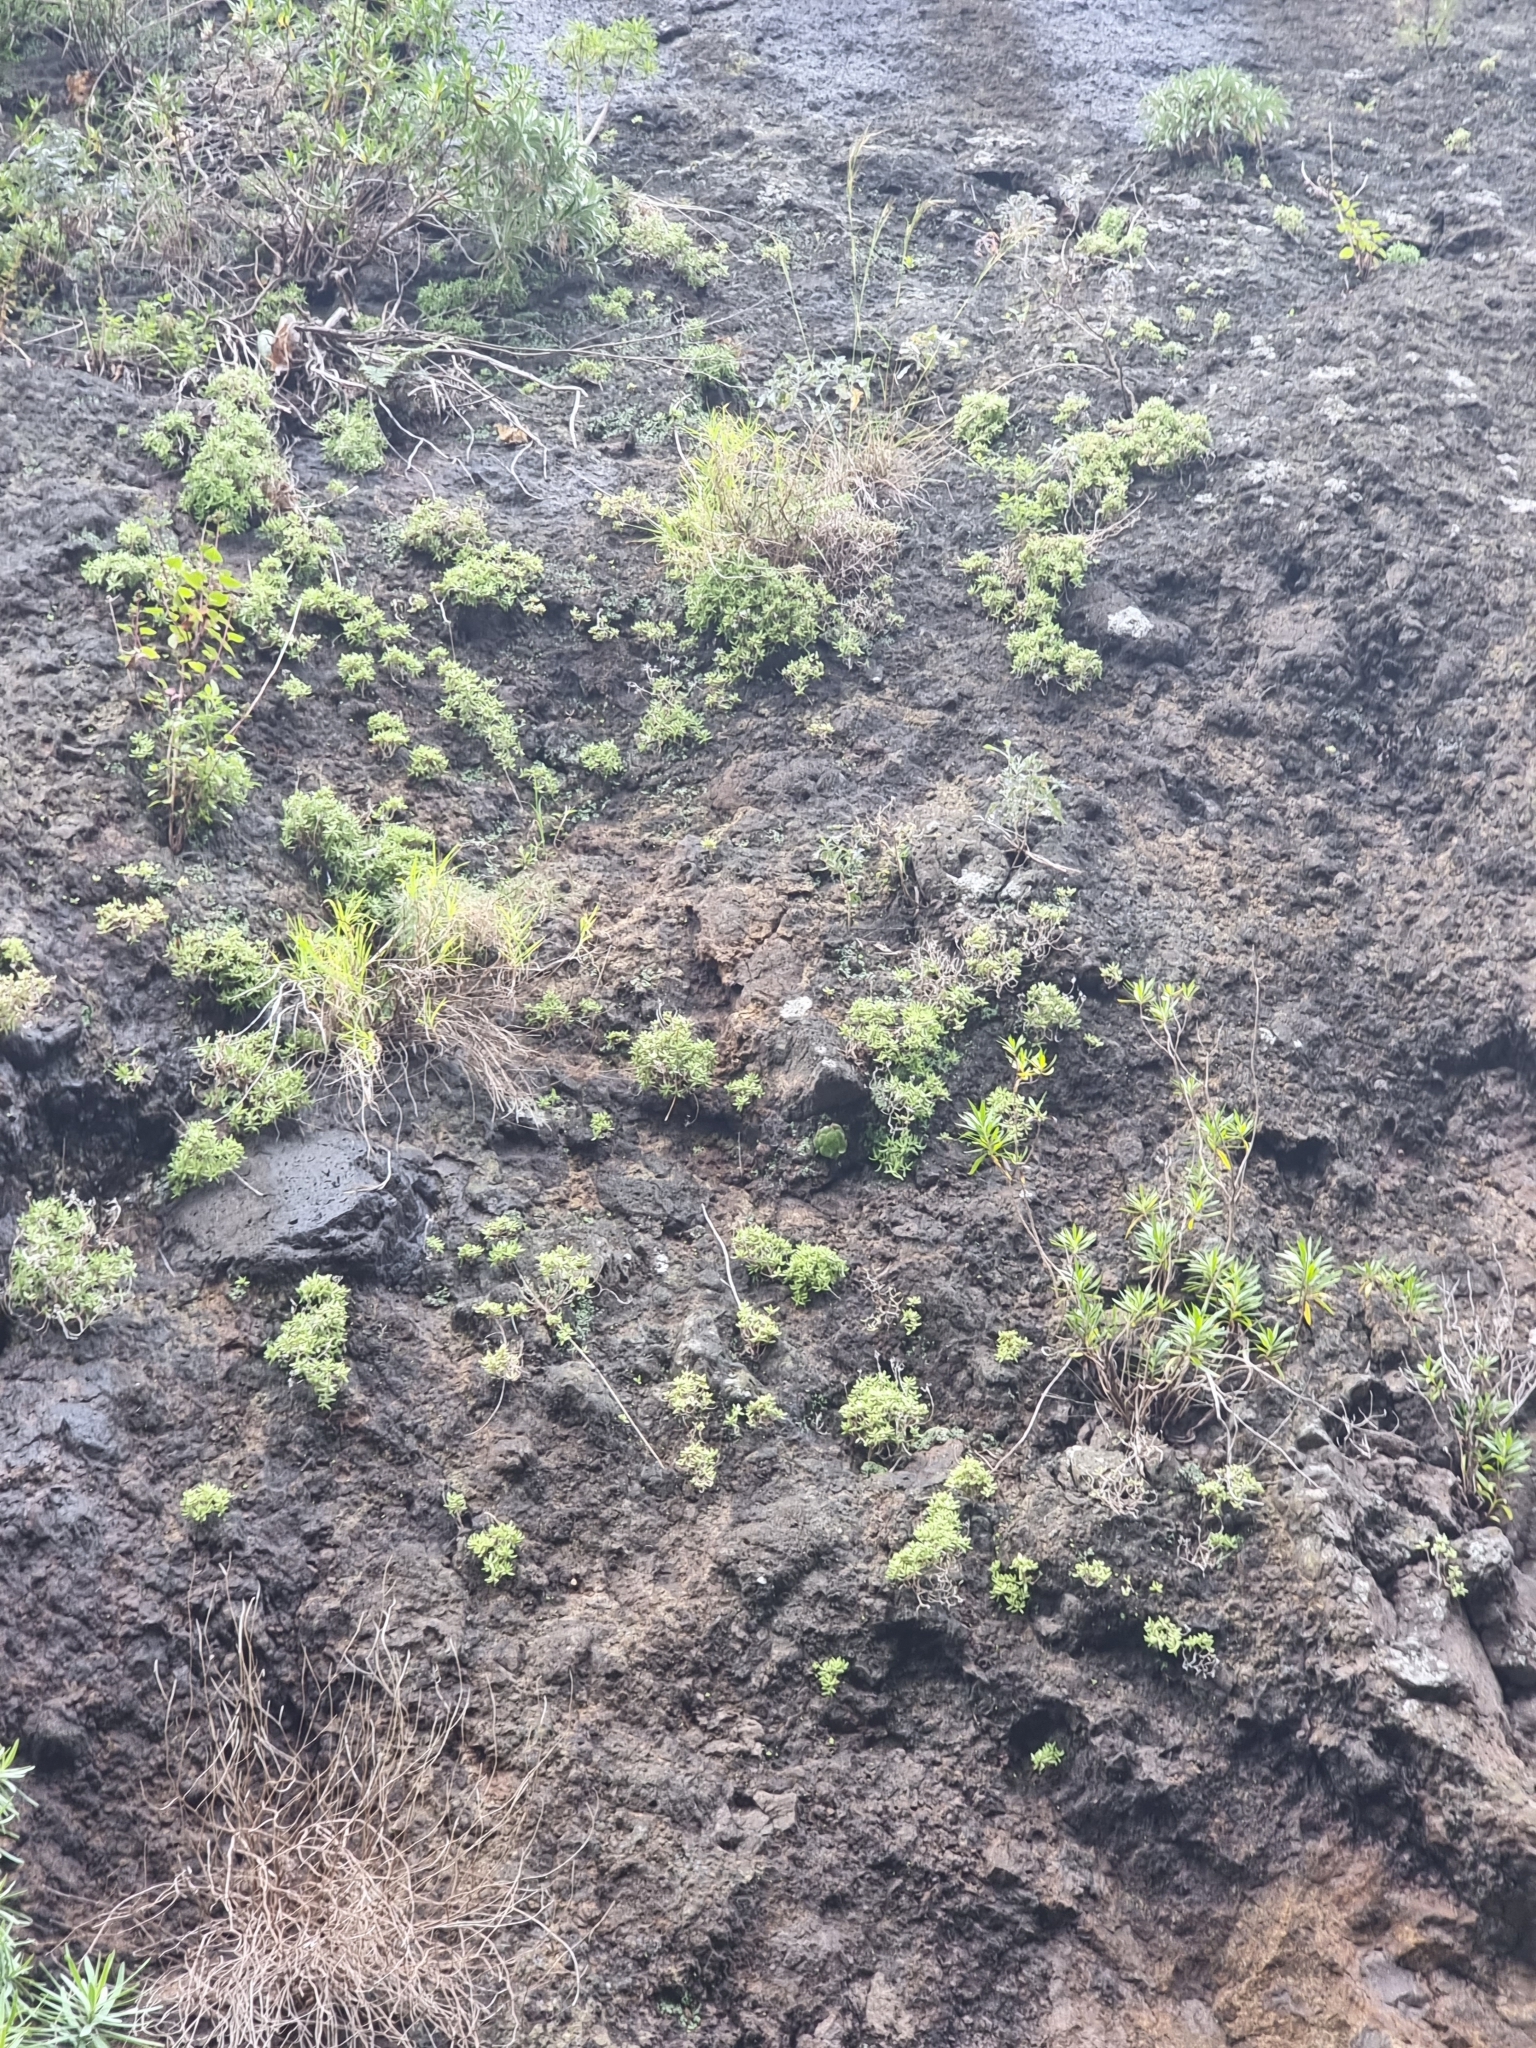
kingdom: Plantae
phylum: Tracheophyta
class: Magnoliopsida
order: Saxifragales
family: Crassulaceae
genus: Sedum
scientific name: Sedum fusiforme
